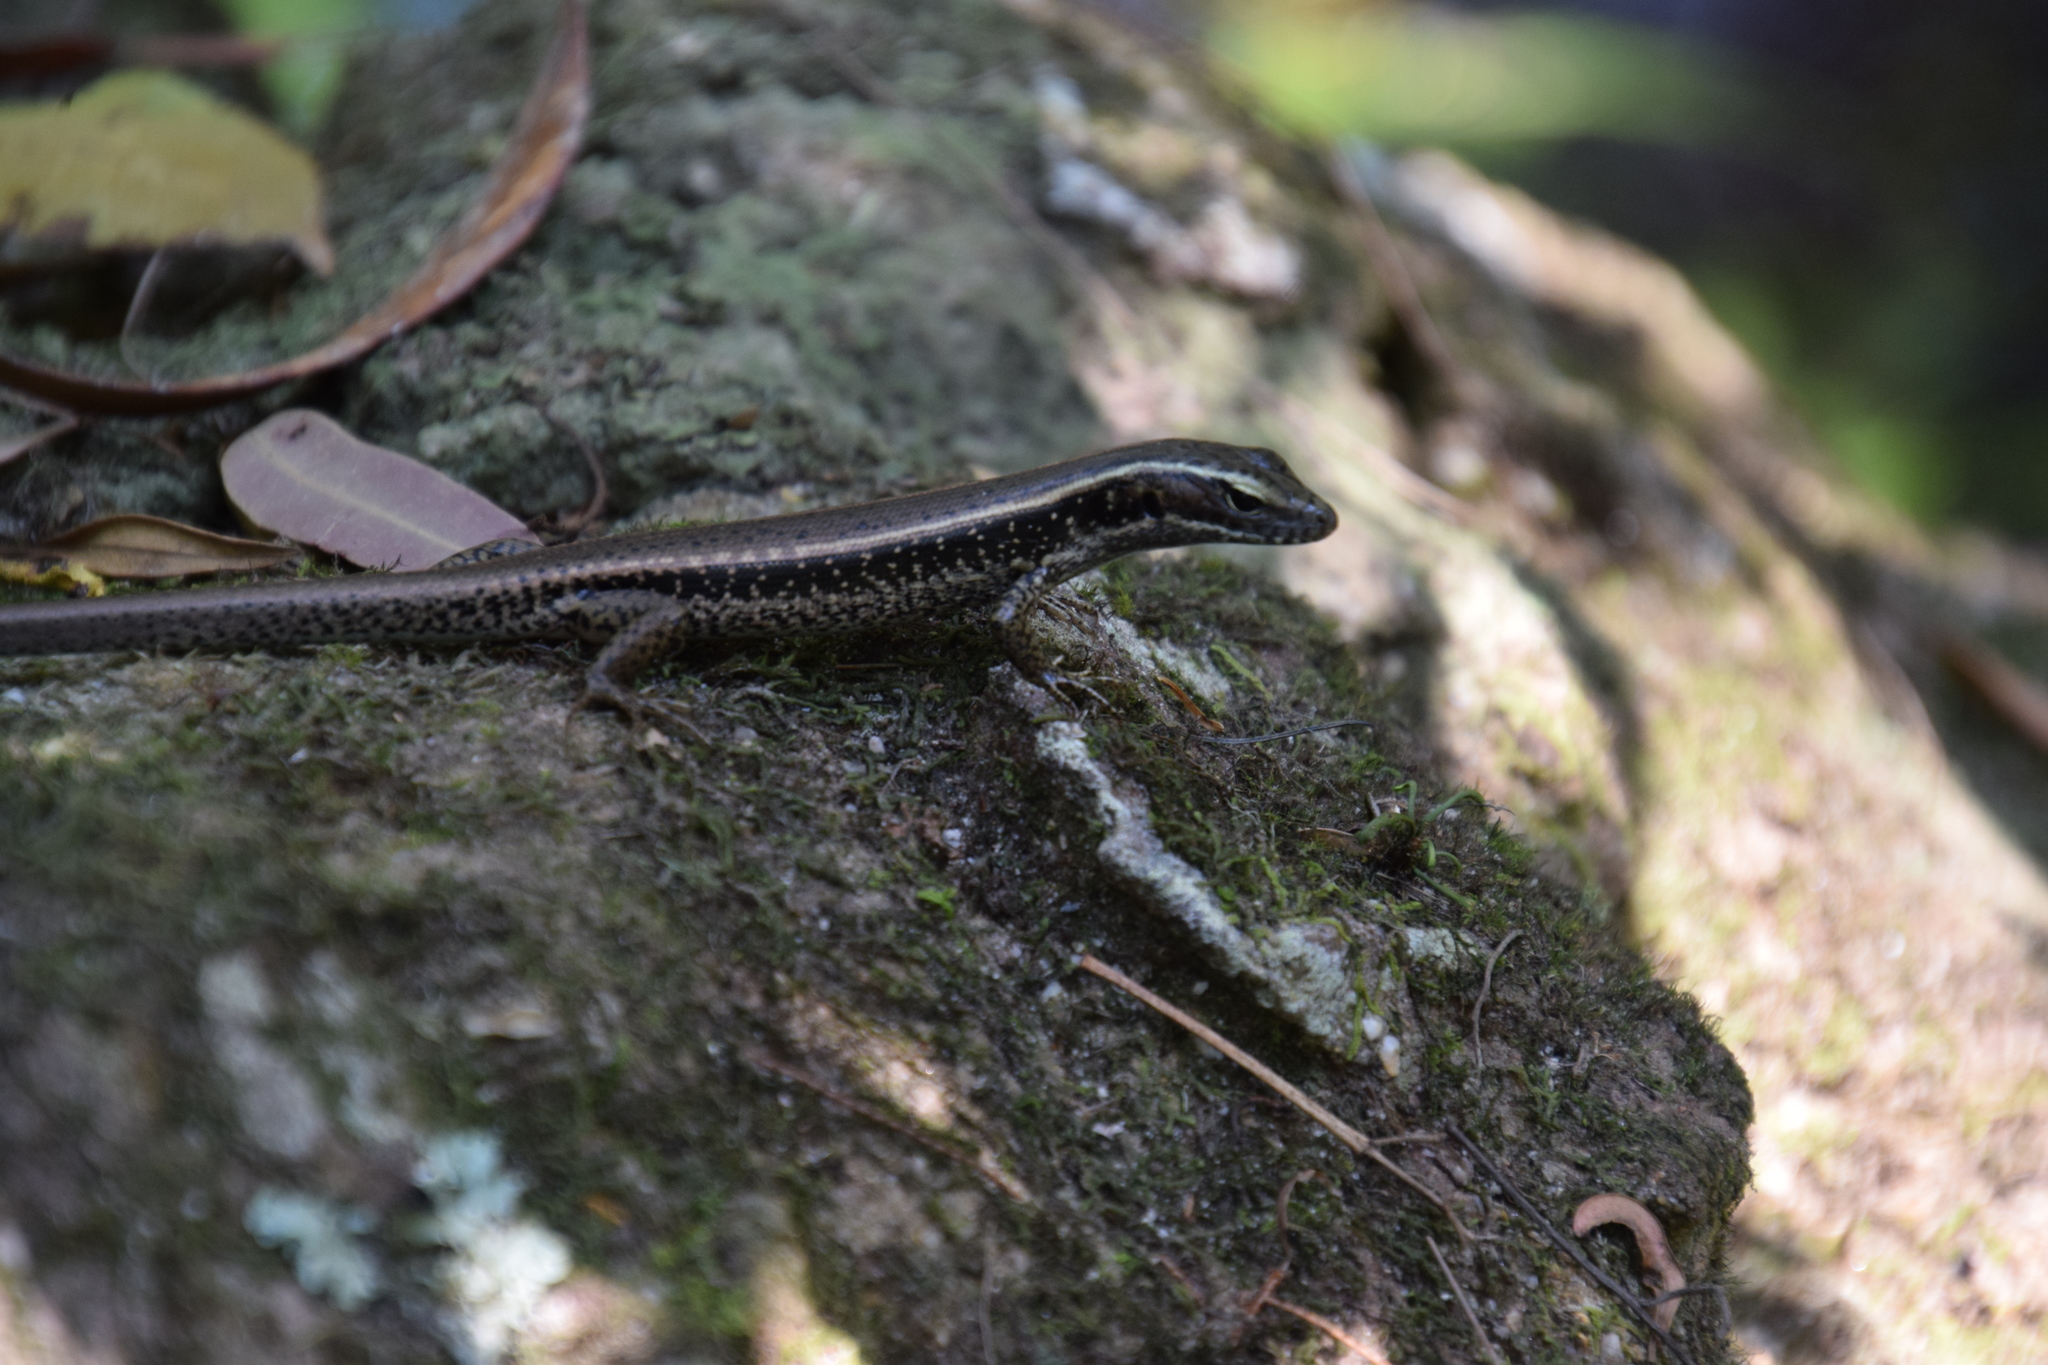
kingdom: Animalia
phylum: Chordata
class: Squamata
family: Scincidae
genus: Eulamprus
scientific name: Eulamprus quoyii
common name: Eastern water skink
